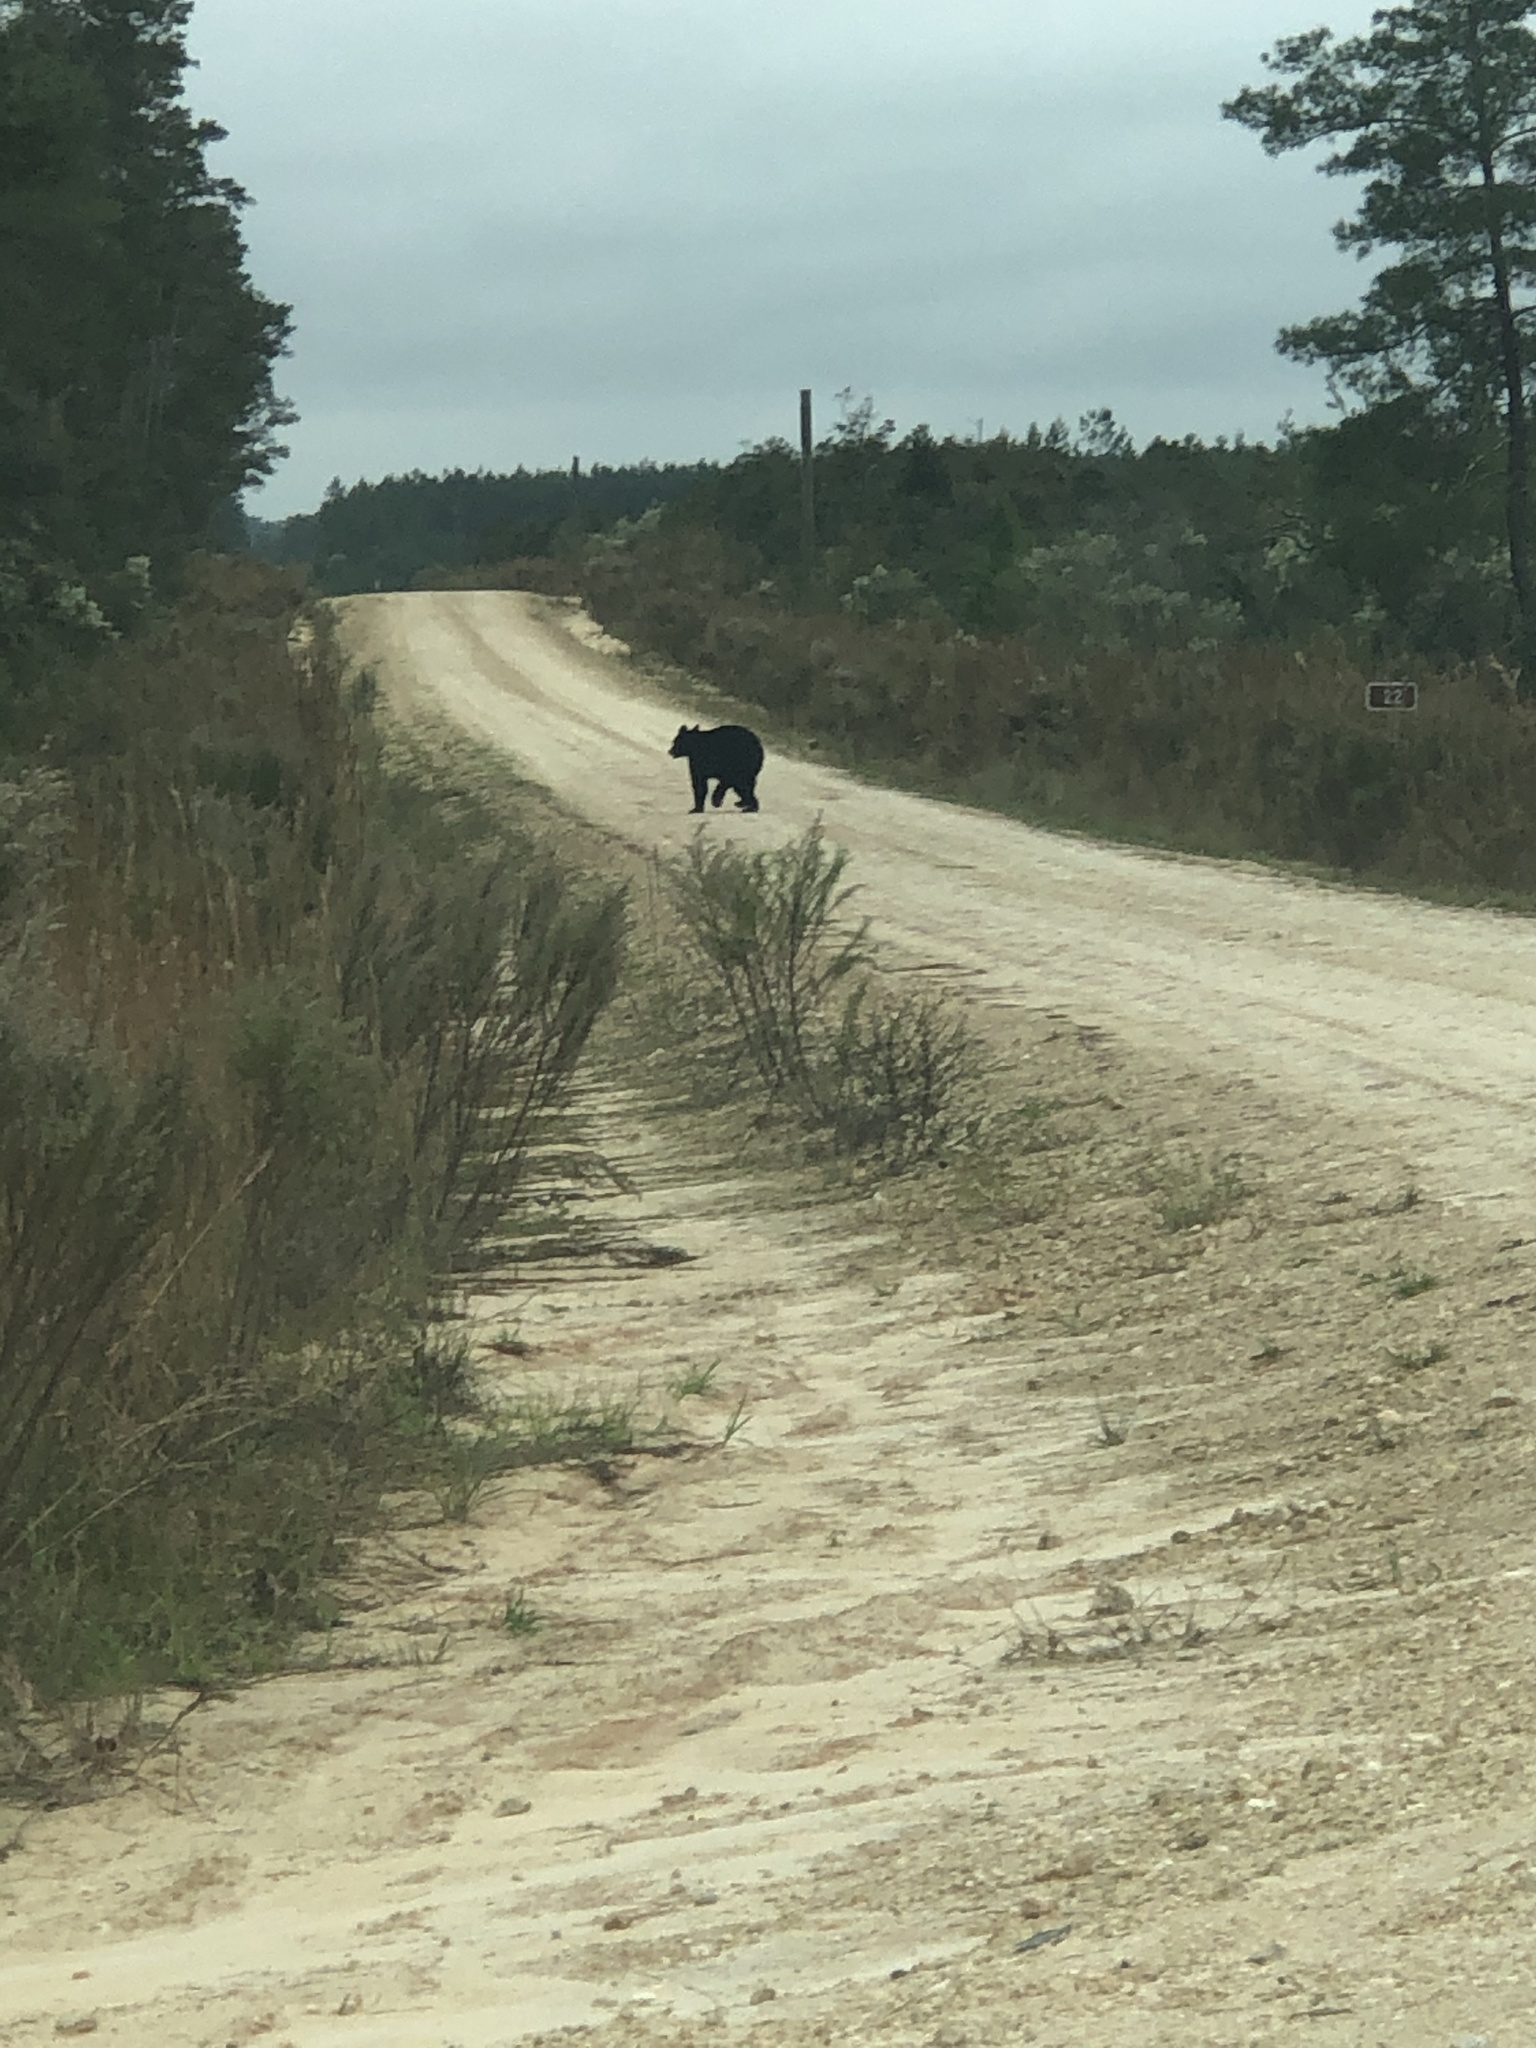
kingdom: Animalia
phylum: Chordata
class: Mammalia
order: Carnivora
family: Ursidae
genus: Ursus
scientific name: Ursus americanus
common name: American black bear
